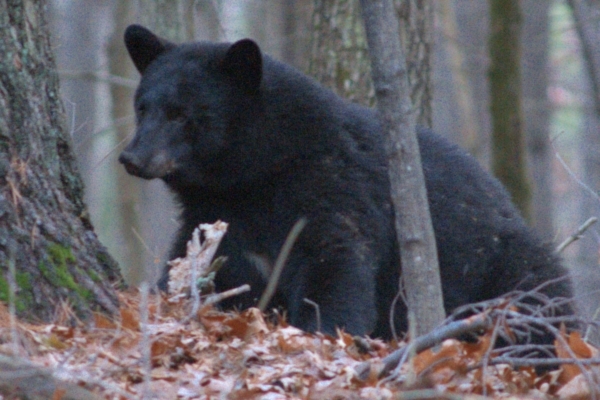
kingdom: Animalia
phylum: Chordata
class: Mammalia
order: Carnivora
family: Ursidae
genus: Ursus
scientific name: Ursus americanus
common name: American black bear
